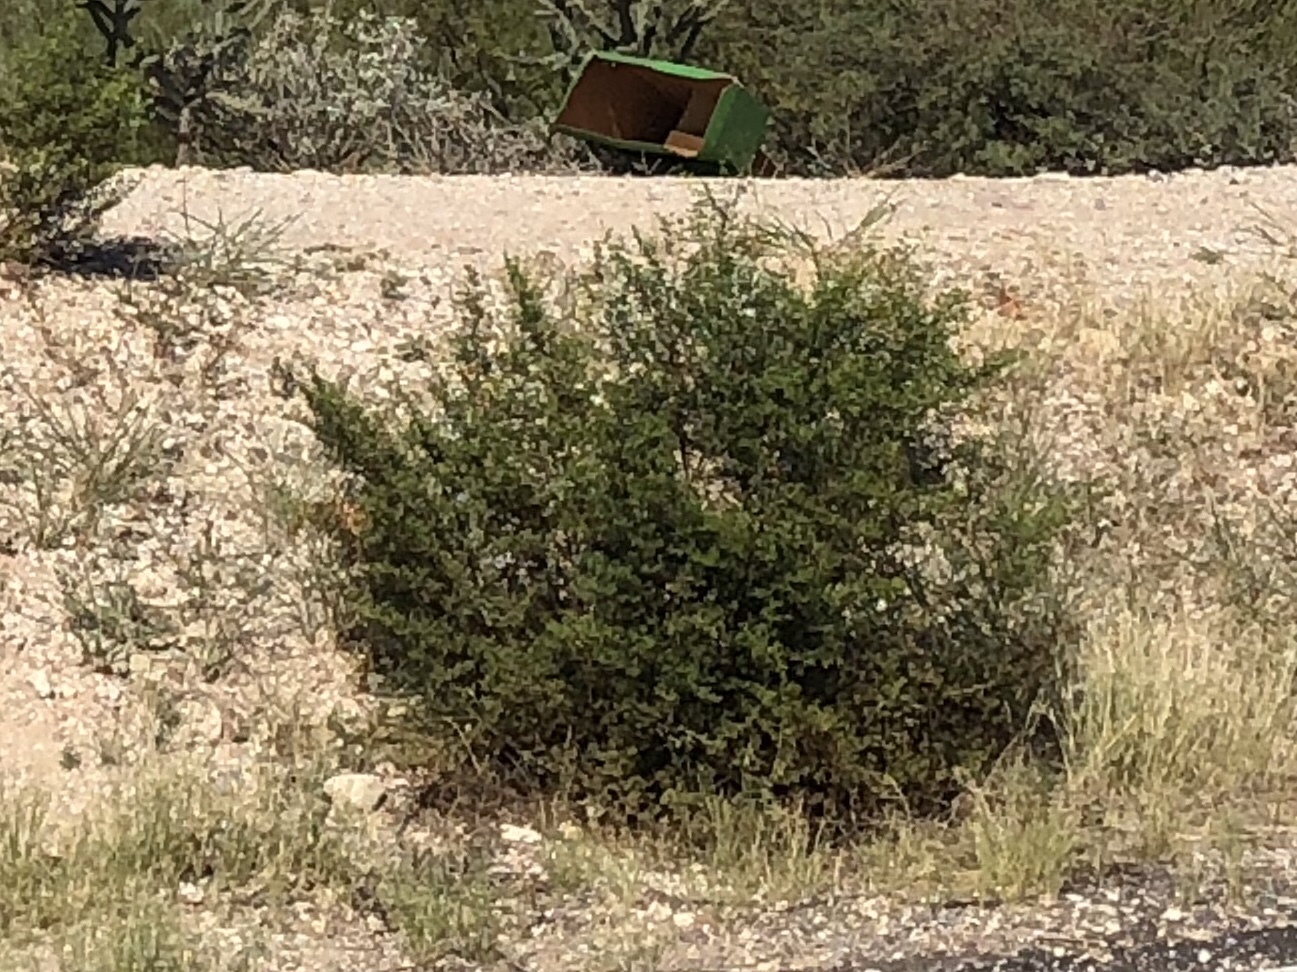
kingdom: Plantae
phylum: Tracheophyta
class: Magnoliopsida
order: Zygophyllales
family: Zygophyllaceae
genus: Larrea
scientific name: Larrea tridentata
